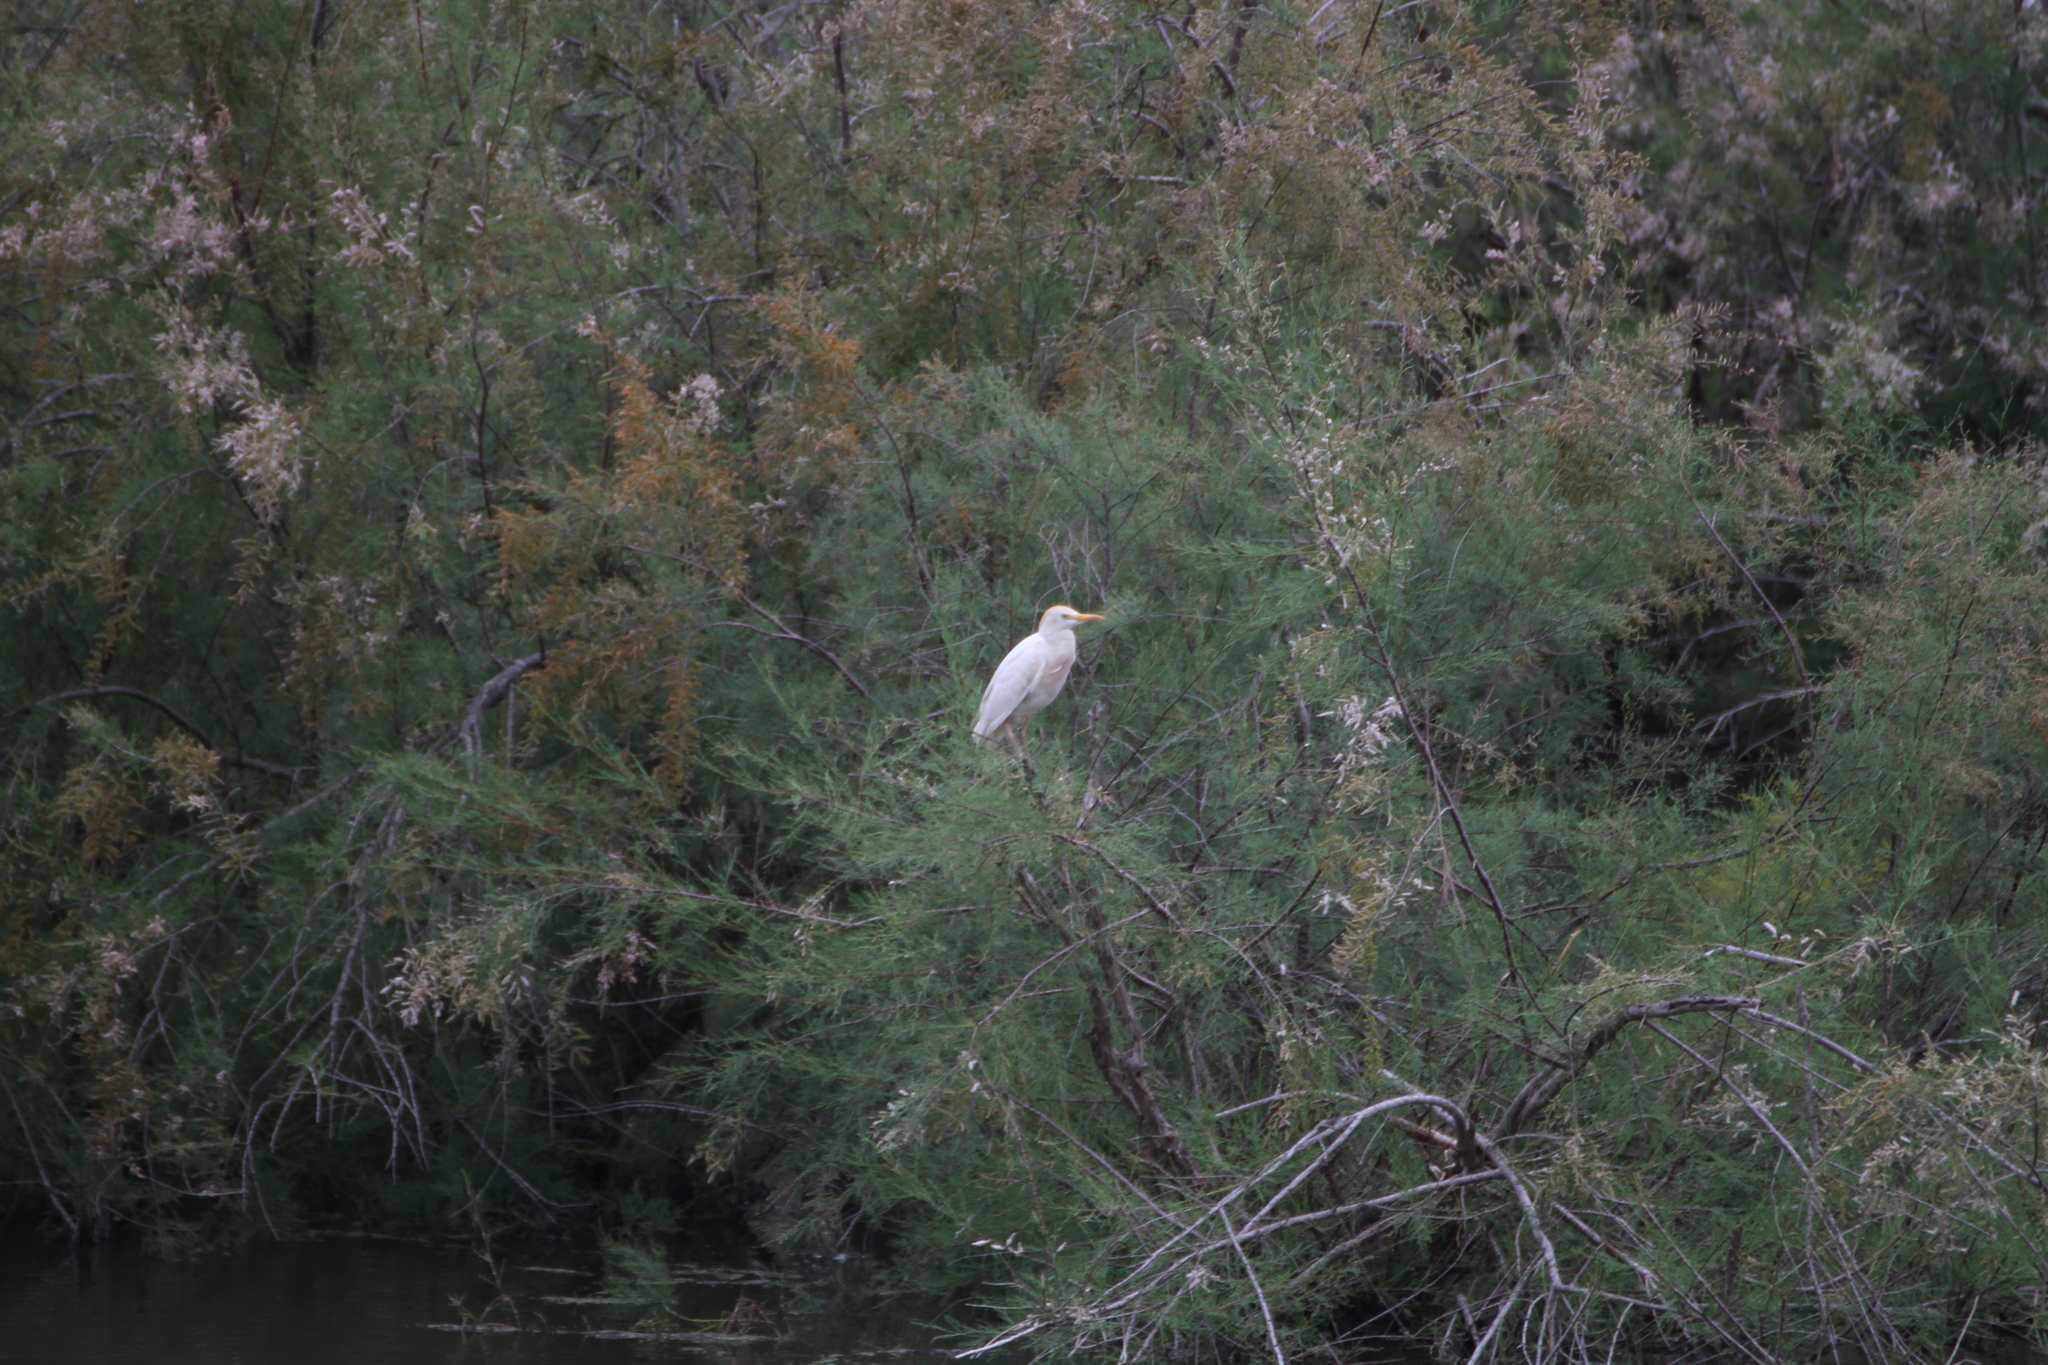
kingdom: Animalia
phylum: Chordata
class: Aves
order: Pelecaniformes
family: Ardeidae
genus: Bubulcus
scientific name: Bubulcus ibis
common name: Cattle egret
